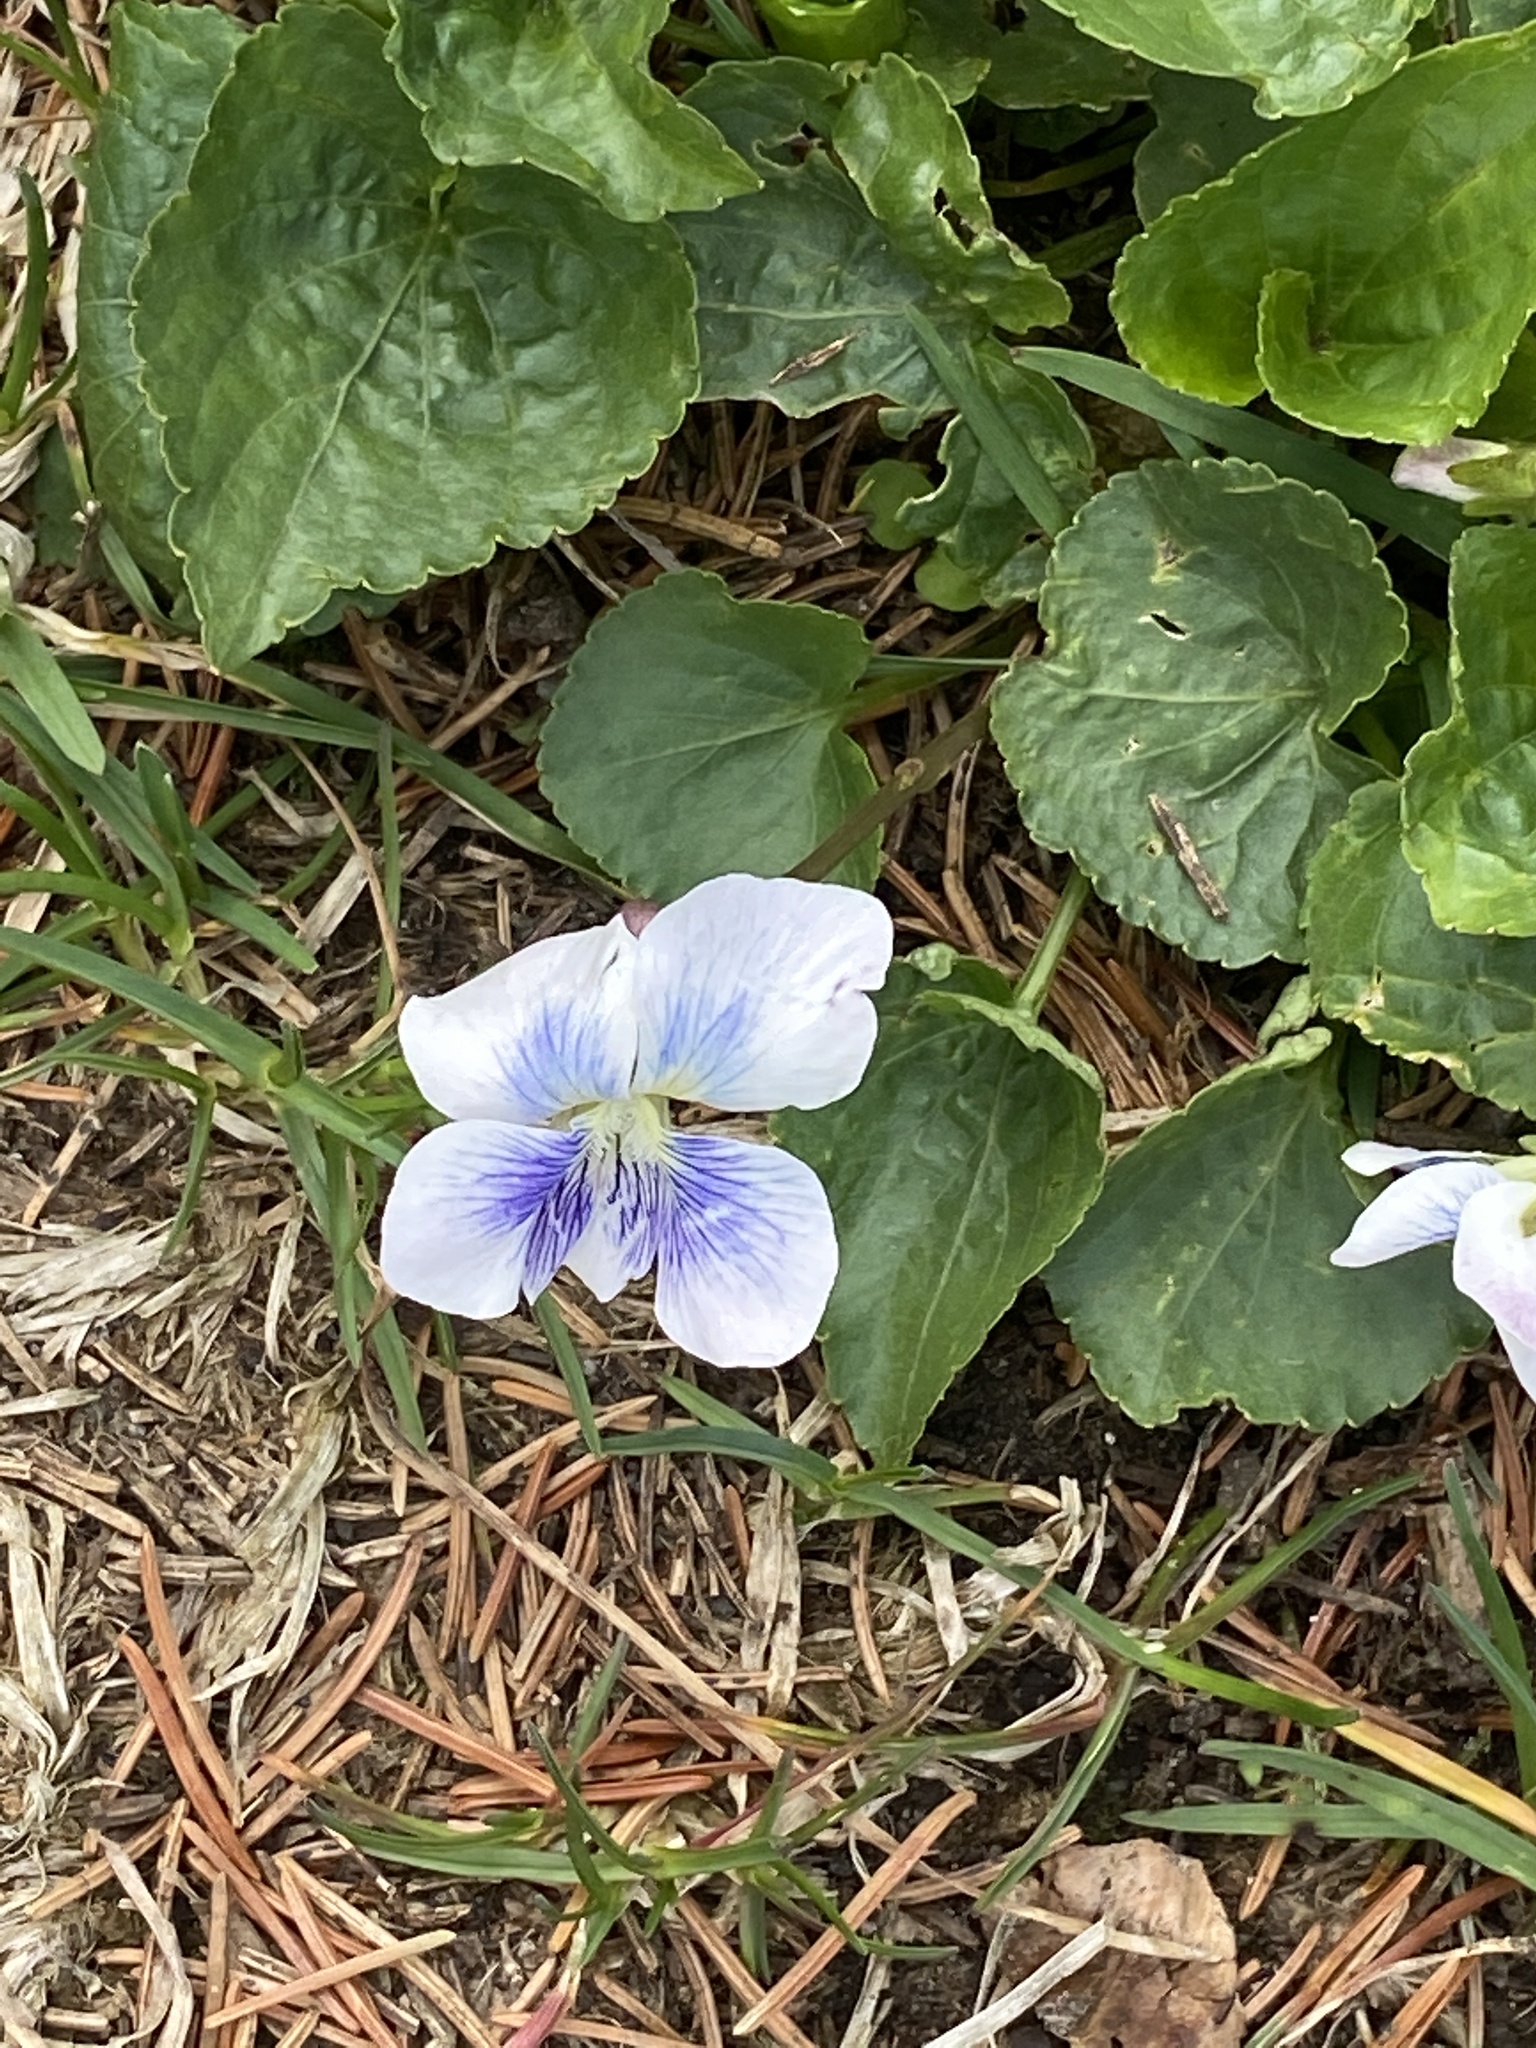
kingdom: Plantae
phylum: Tracheophyta
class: Magnoliopsida
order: Malpighiales
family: Violaceae
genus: Viola
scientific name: Viola sororia
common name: Dooryard violet
